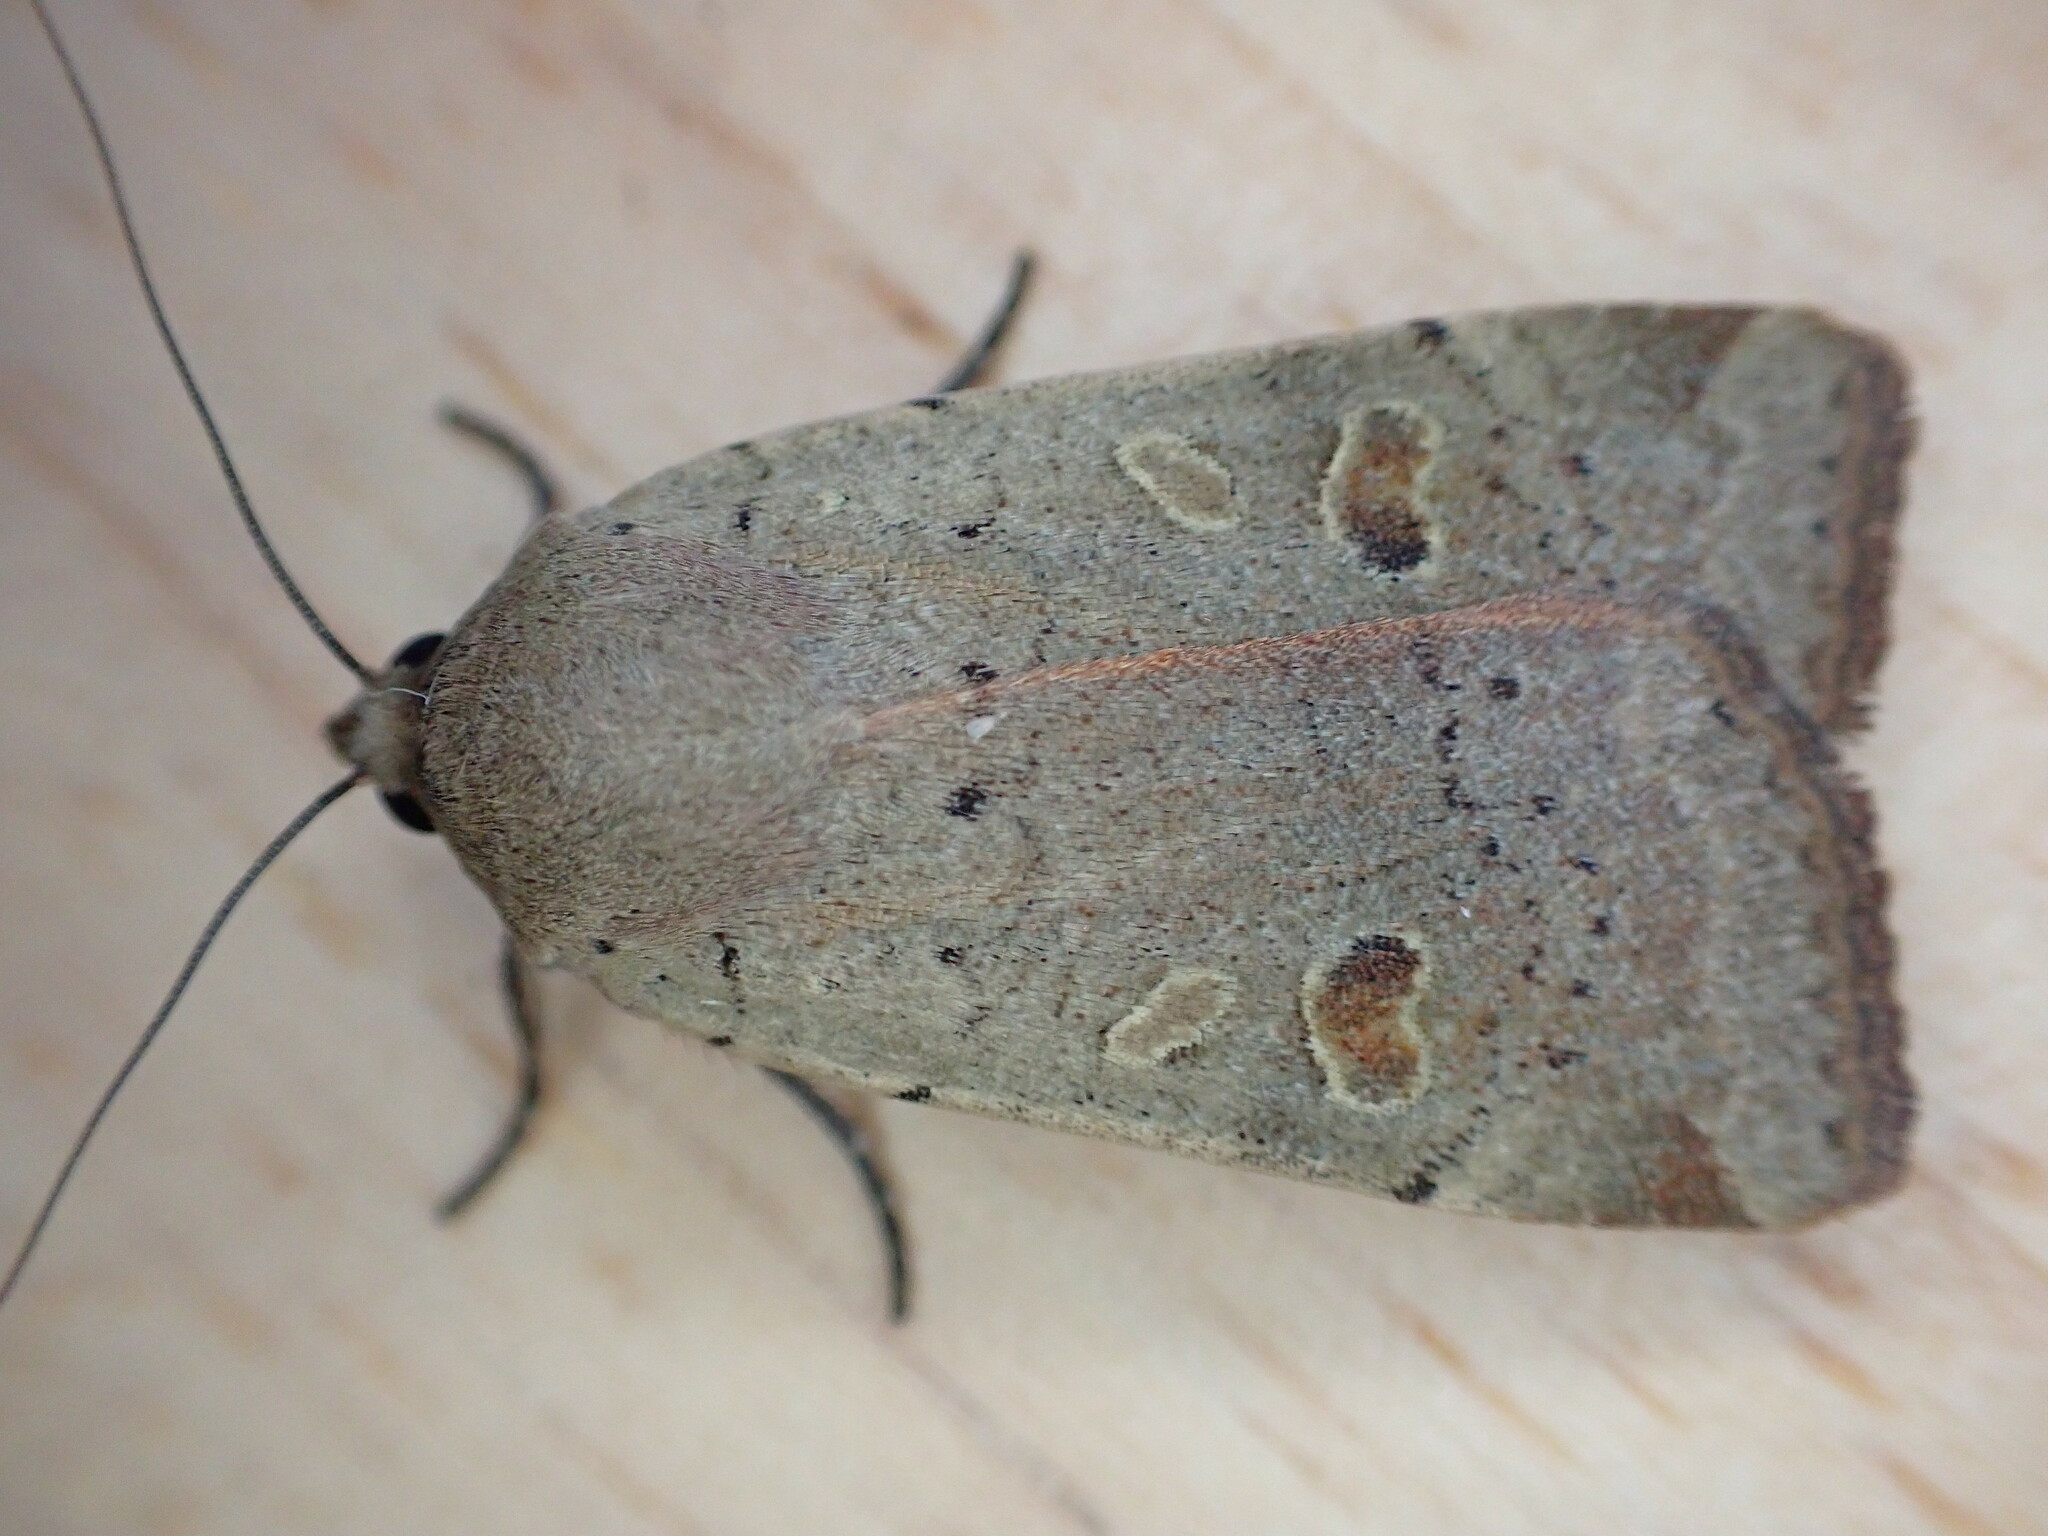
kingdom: Animalia
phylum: Arthropoda
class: Insecta
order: Lepidoptera
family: Noctuidae
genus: Noctua
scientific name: Noctua comes
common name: Lesser yellow underwing
